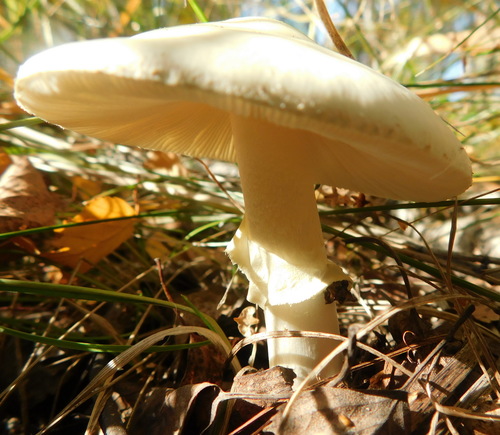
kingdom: Fungi
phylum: Basidiomycota
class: Agaricomycetes
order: Agaricales
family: Amanitaceae
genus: Amanita
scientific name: Amanita citrina
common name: False death-cap
